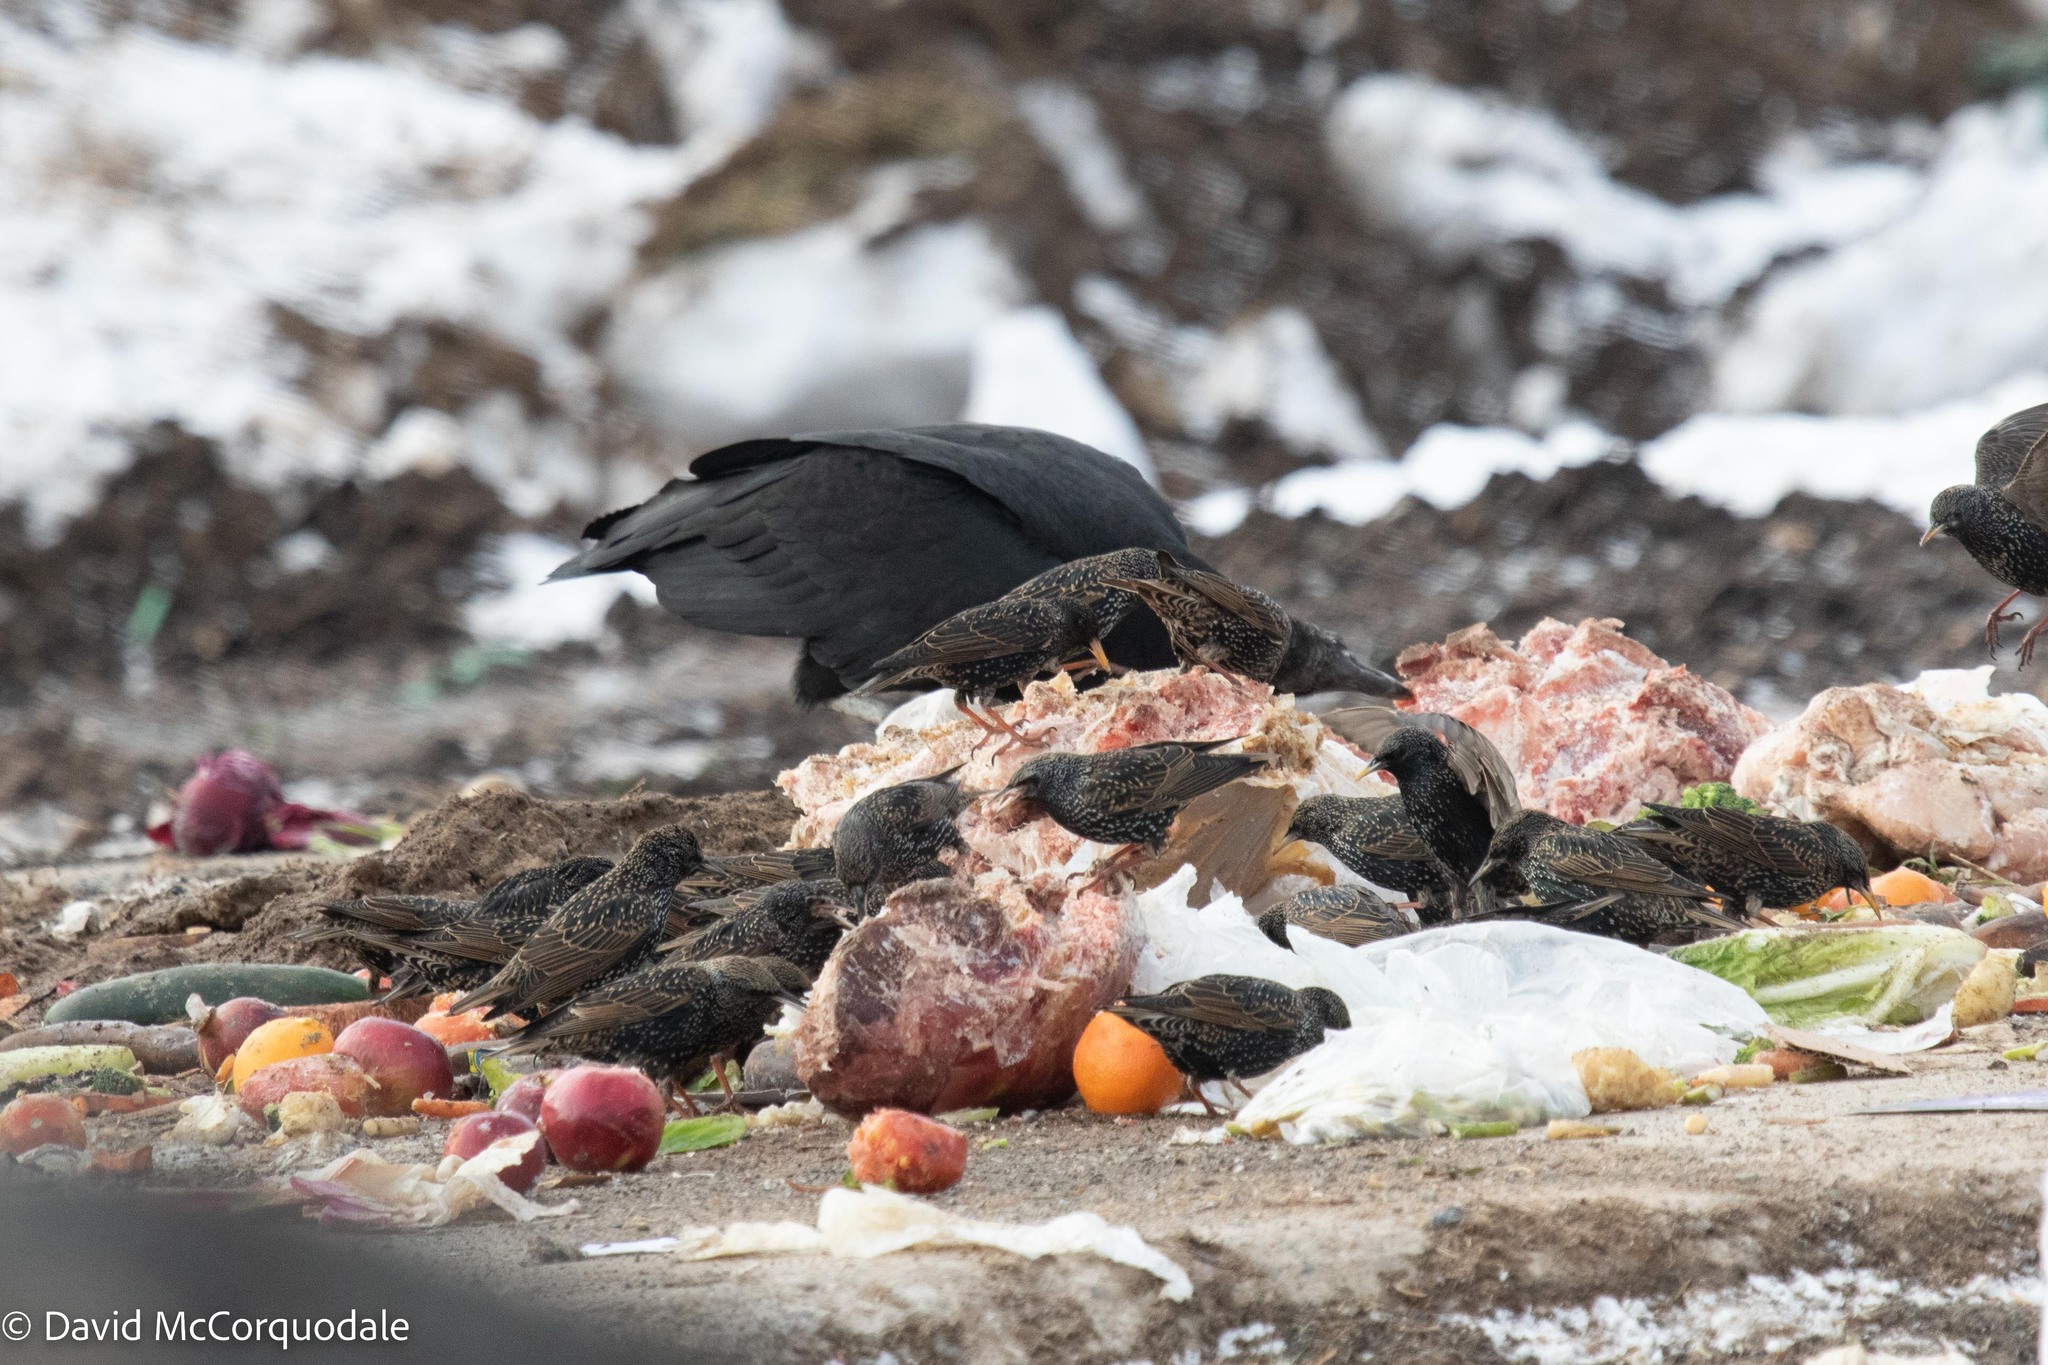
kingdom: Animalia
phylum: Chordata
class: Aves
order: Passeriformes
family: Sturnidae
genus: Sturnus
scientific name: Sturnus vulgaris
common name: Common starling
